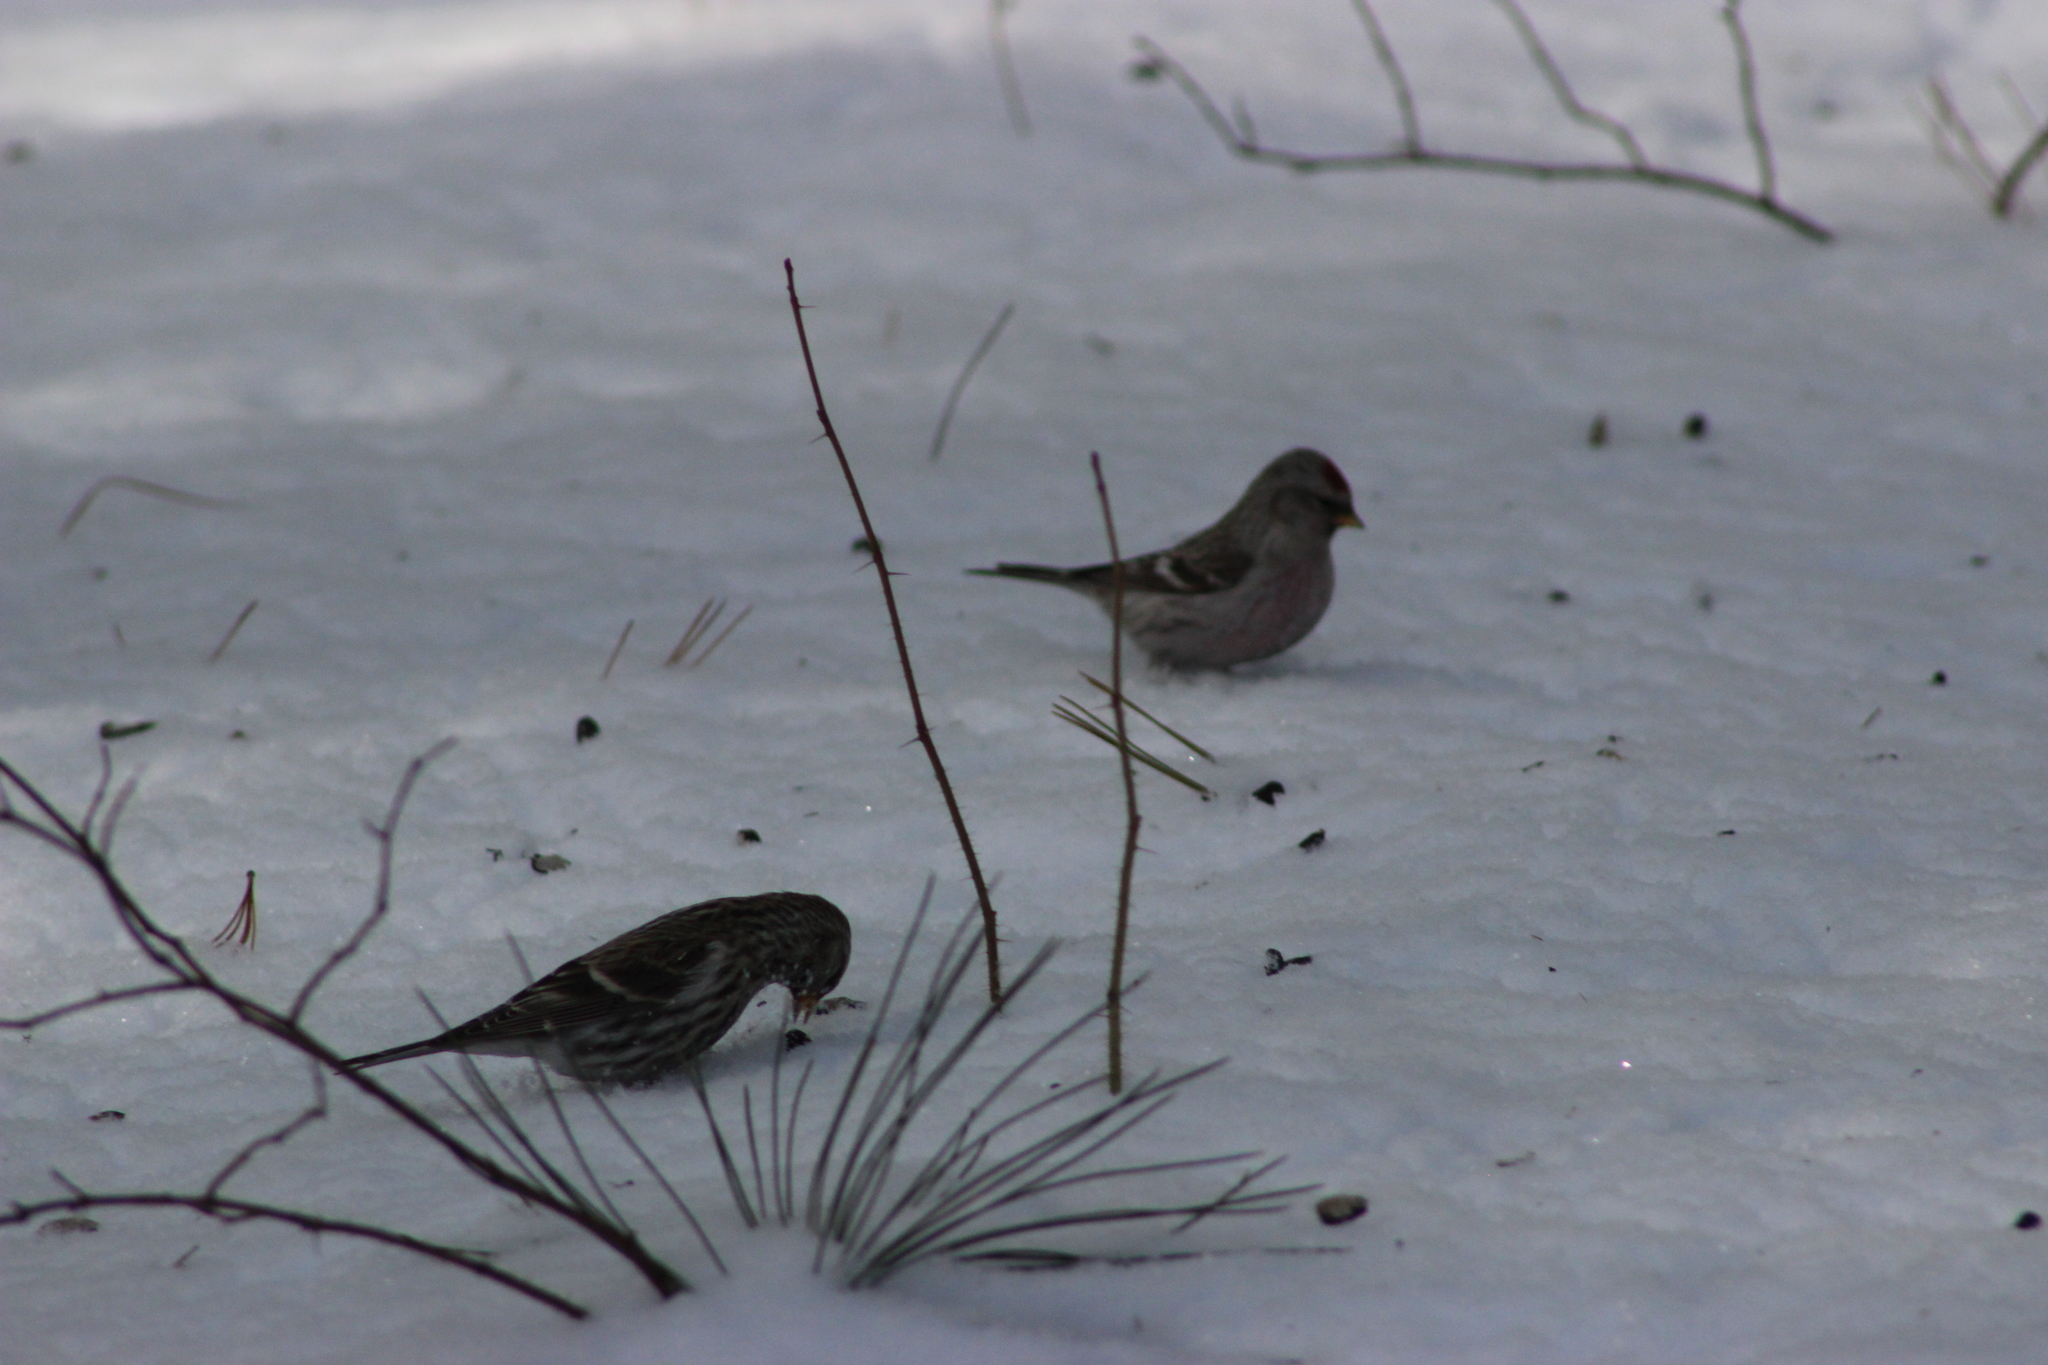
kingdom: Animalia
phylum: Chordata
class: Aves
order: Passeriformes
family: Fringillidae
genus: Acanthis
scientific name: Acanthis flammea
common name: Common redpoll
